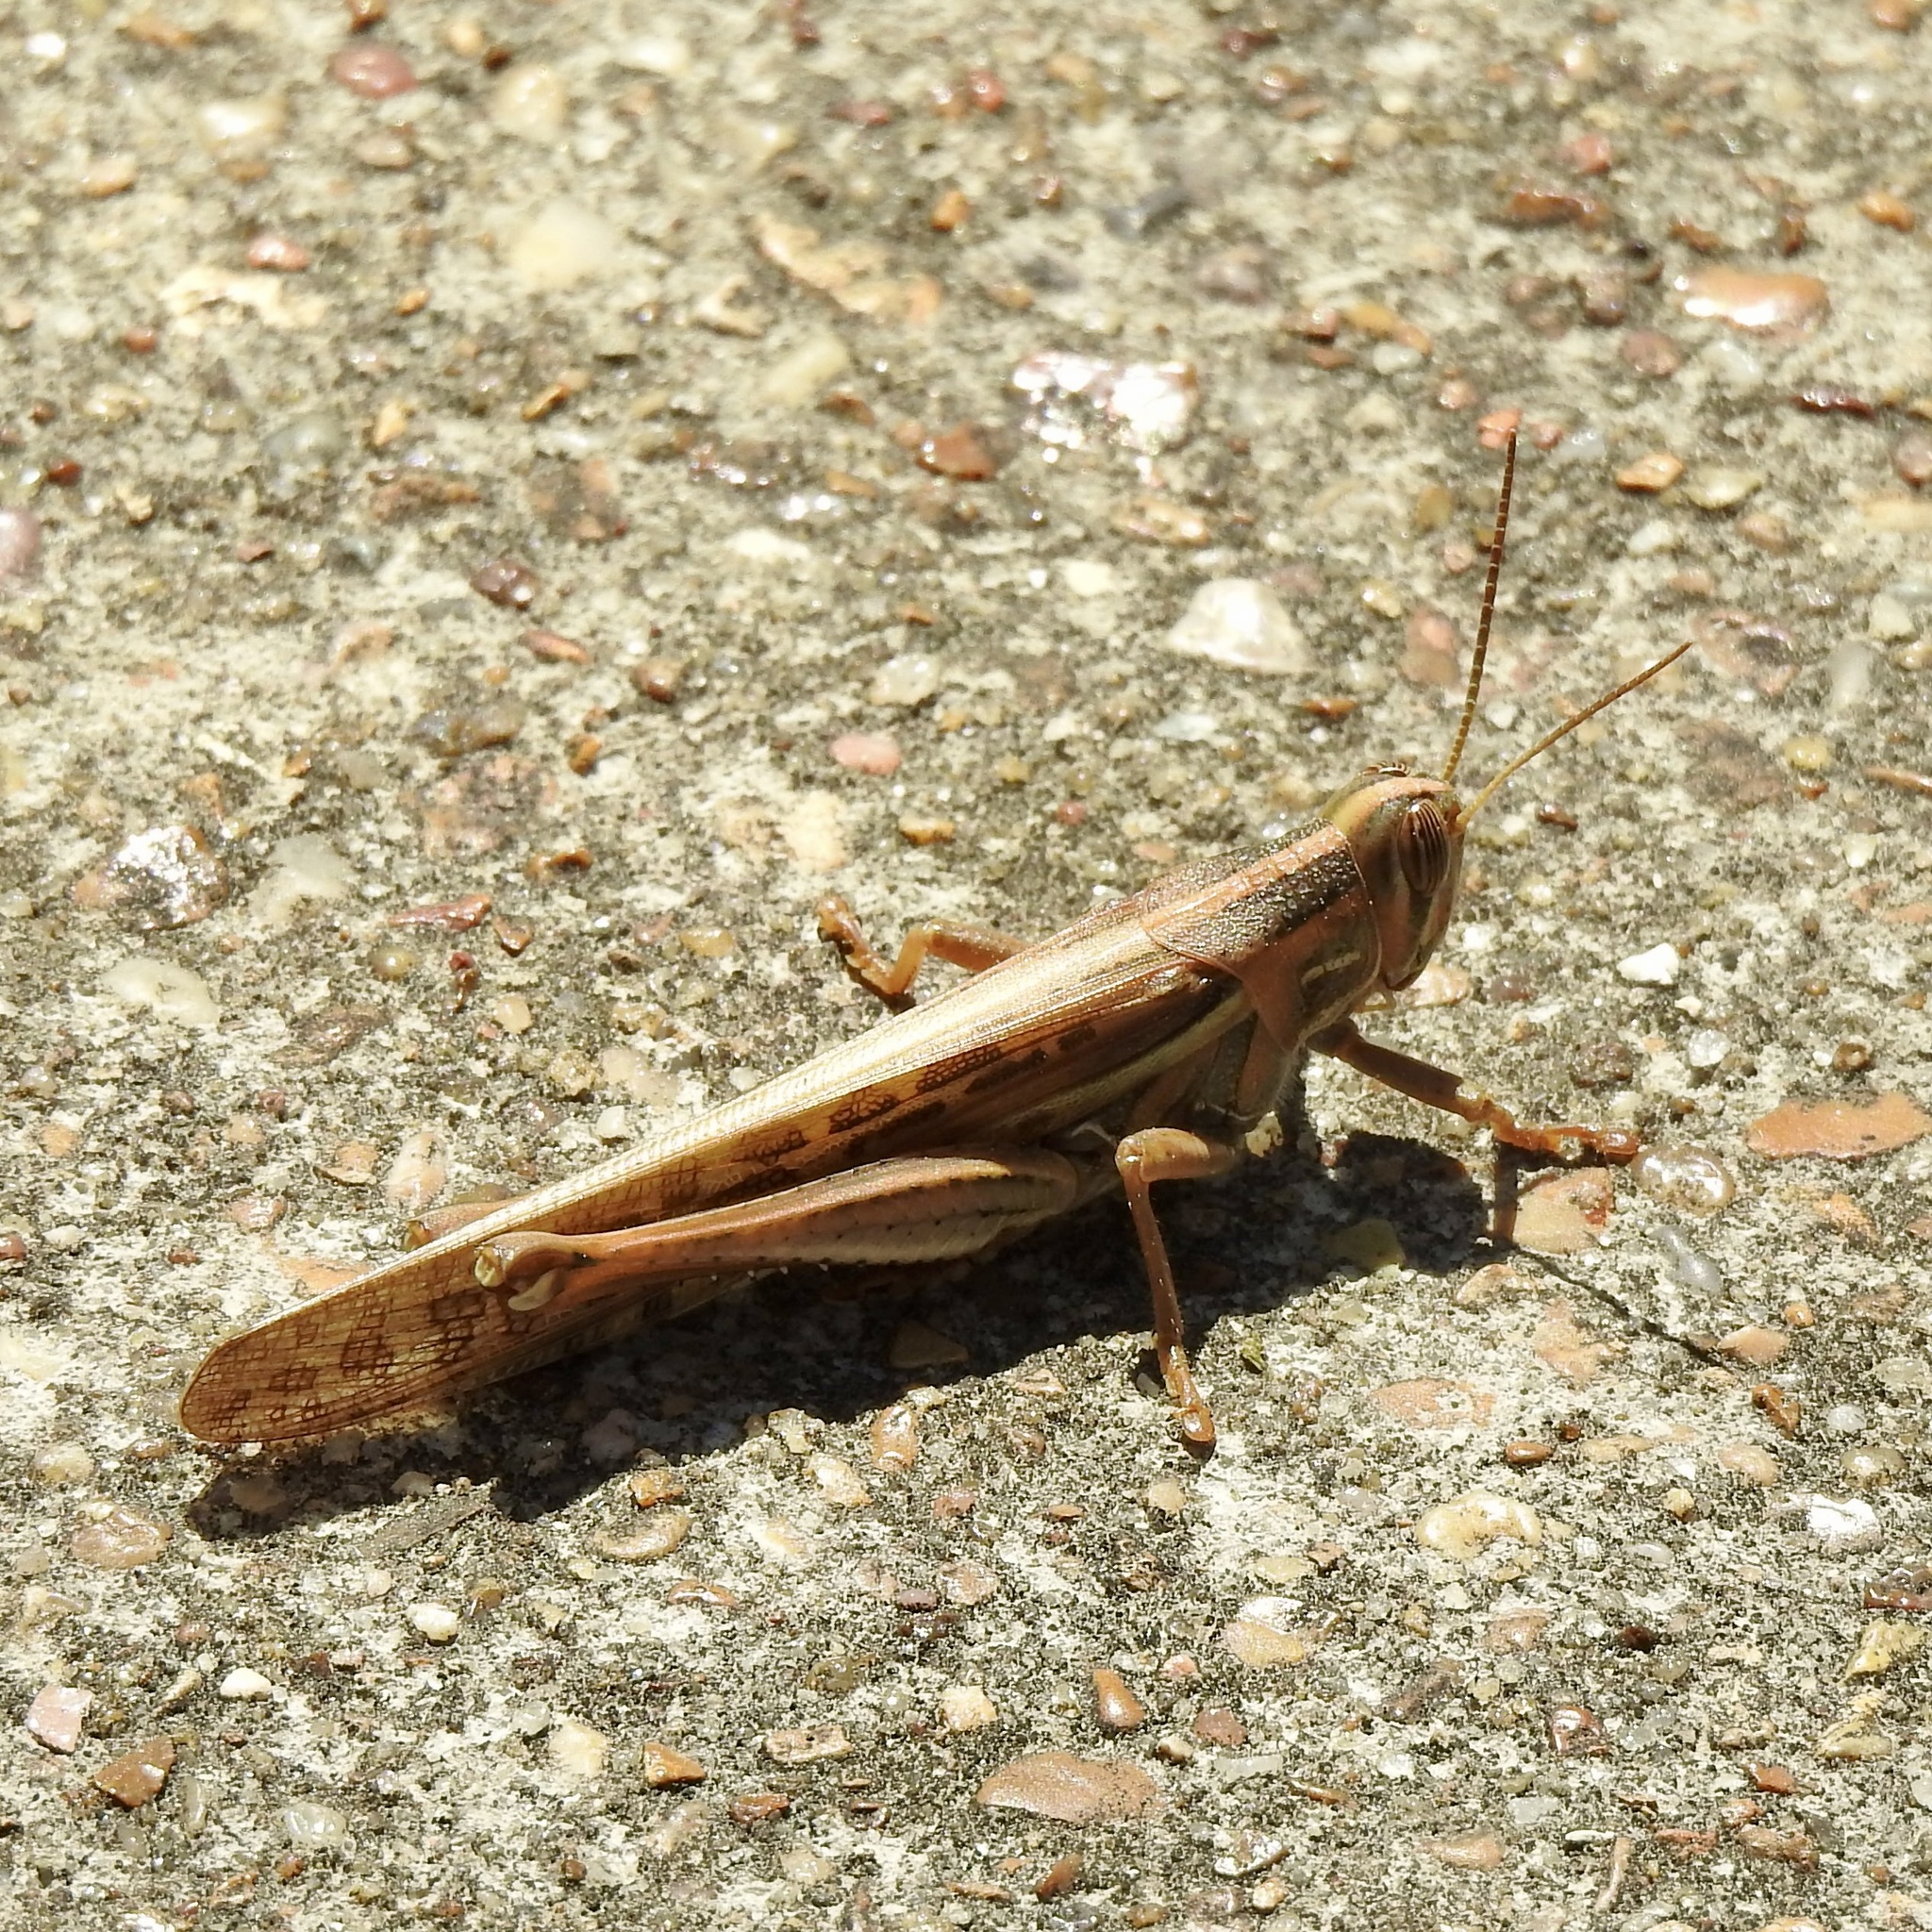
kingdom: Animalia
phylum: Arthropoda
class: Insecta
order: Orthoptera
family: Acrididae
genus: Schistocerca
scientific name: Schistocerca americana
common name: American bird locust
